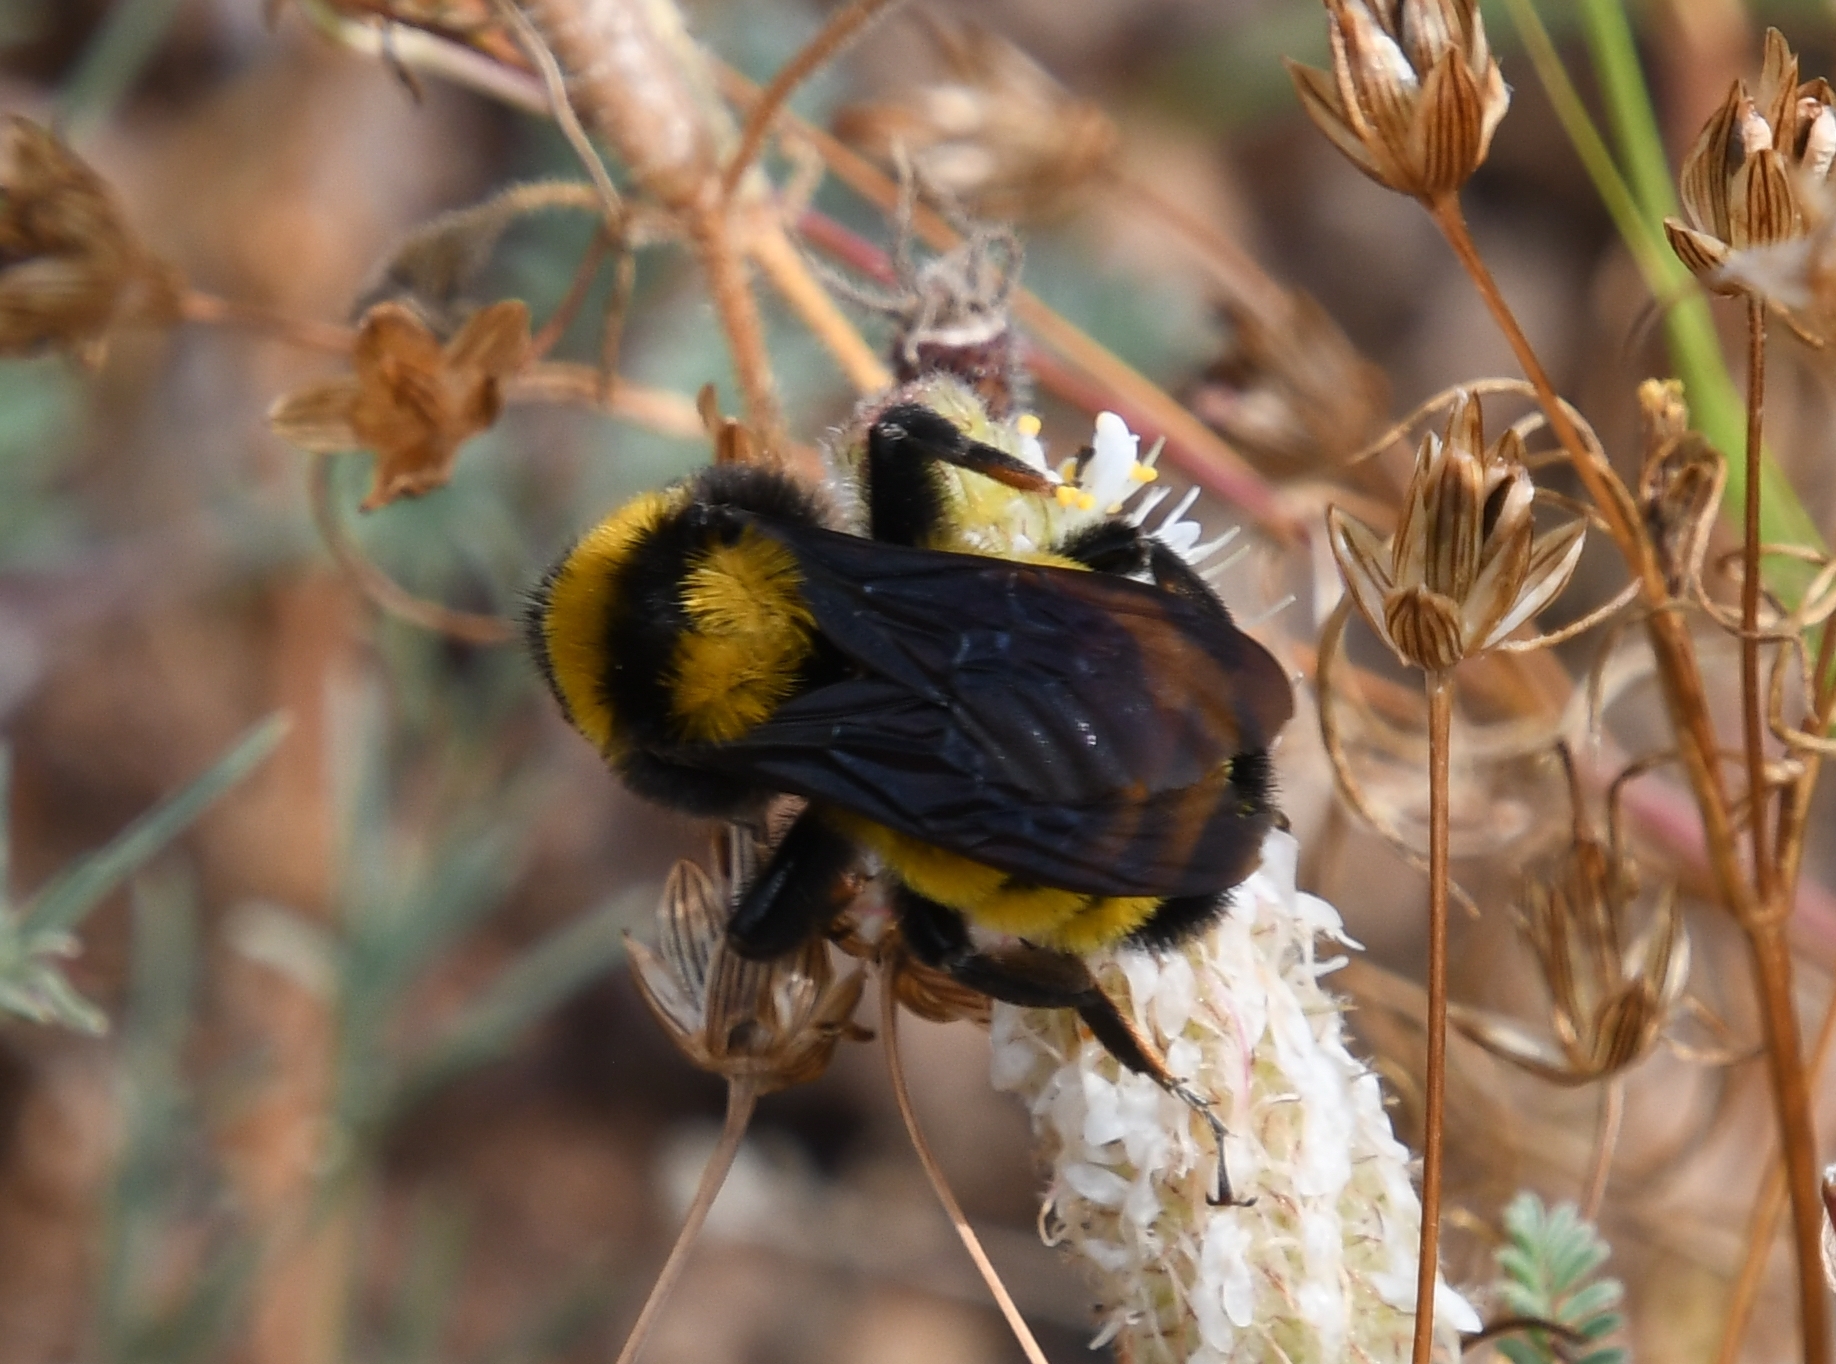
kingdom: Animalia
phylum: Arthropoda
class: Insecta
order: Hymenoptera
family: Apidae
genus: Bombus
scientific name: Bombus sonorus
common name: Sonoran bumble bee
